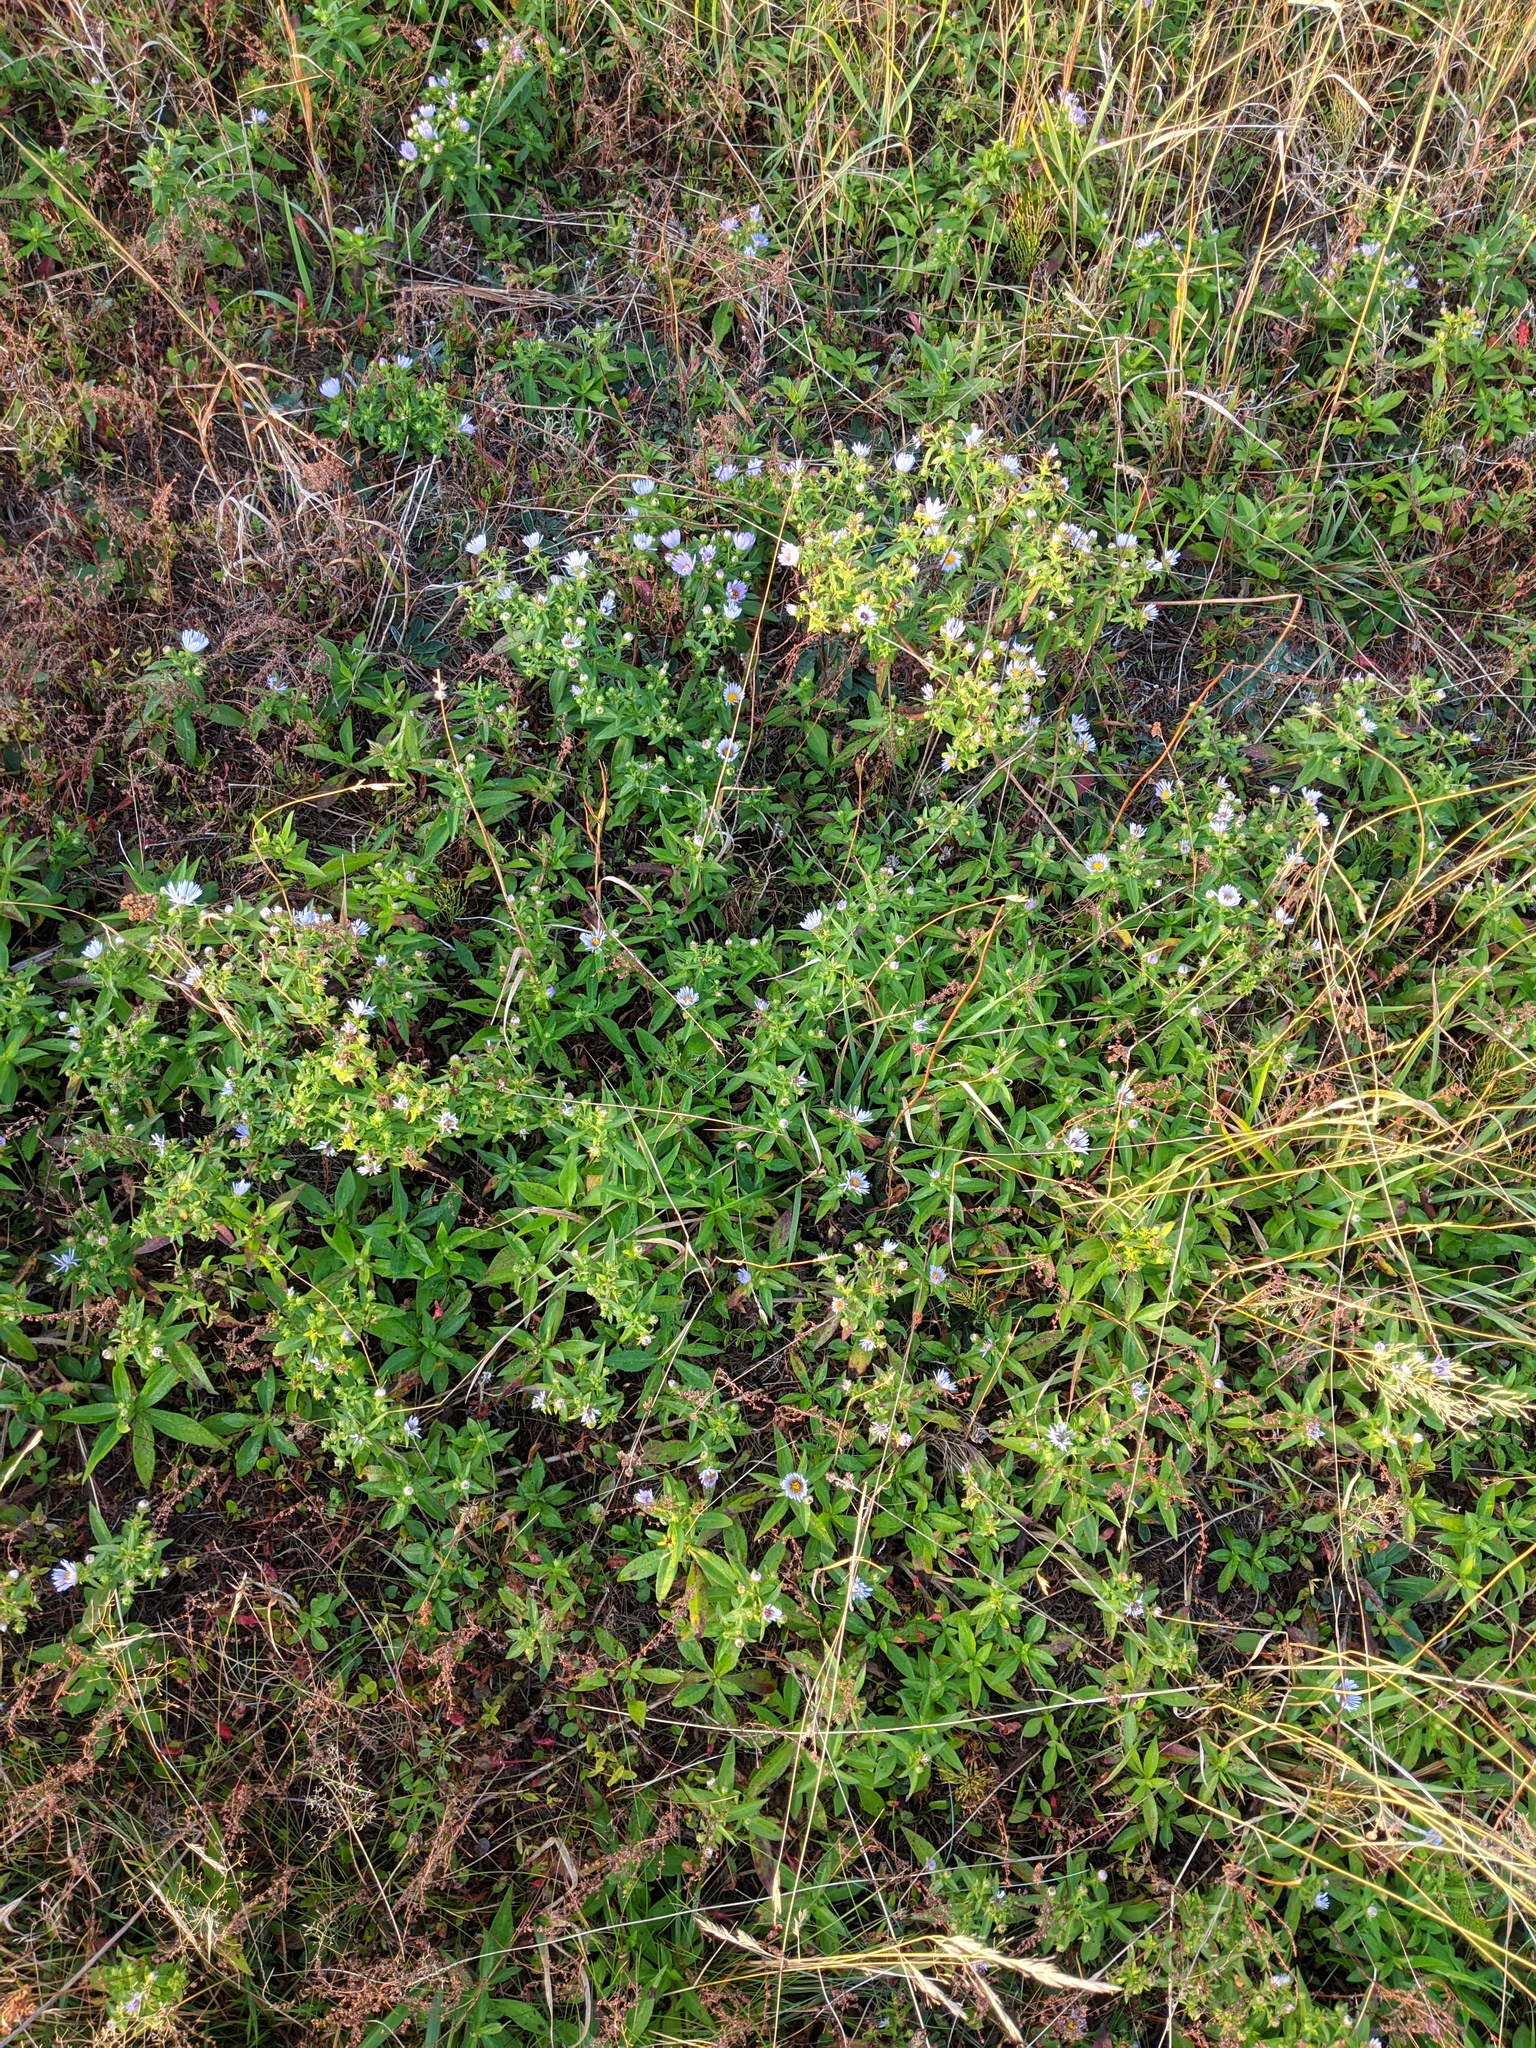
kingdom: Plantae
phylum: Tracheophyta
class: Magnoliopsida
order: Asterales
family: Asteraceae
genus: Symphyotrichum
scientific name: Symphyotrichum novi-belgii
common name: Michaelmas daisy
